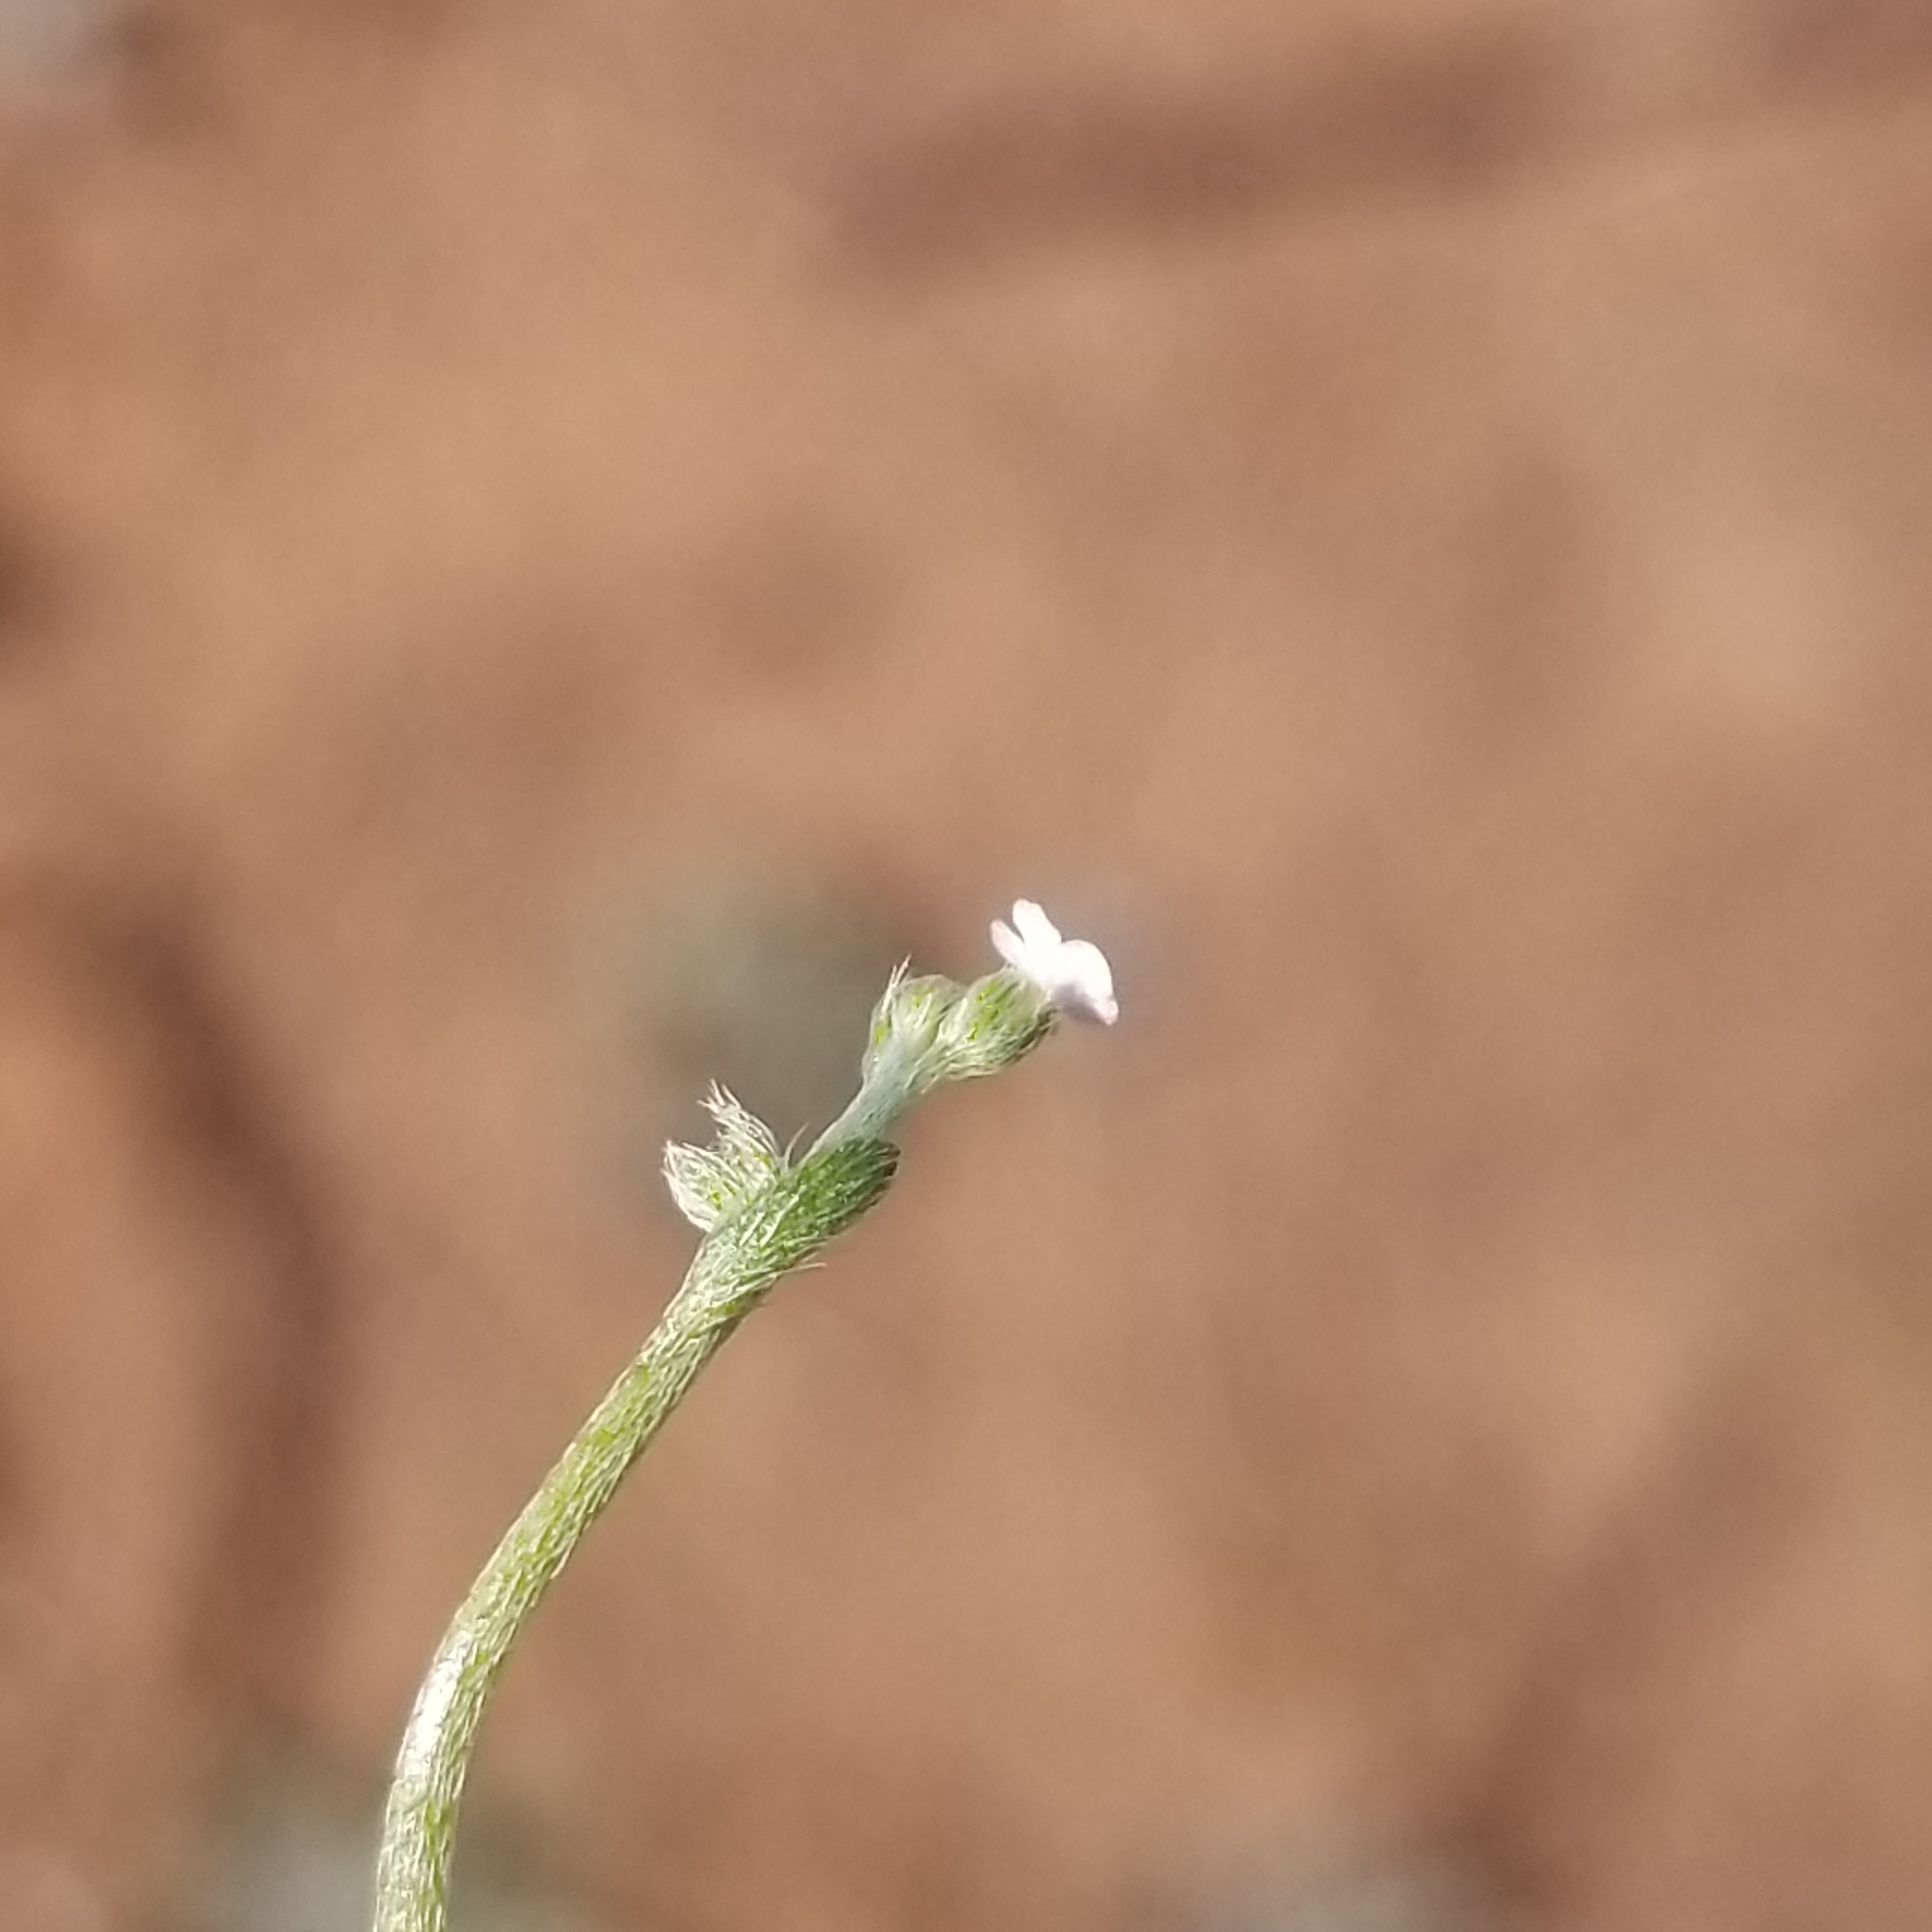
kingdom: Plantae
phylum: Tracheophyta
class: Magnoliopsida
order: Boraginales
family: Boraginaceae
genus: Pectocarya
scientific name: Pectocarya linearis
